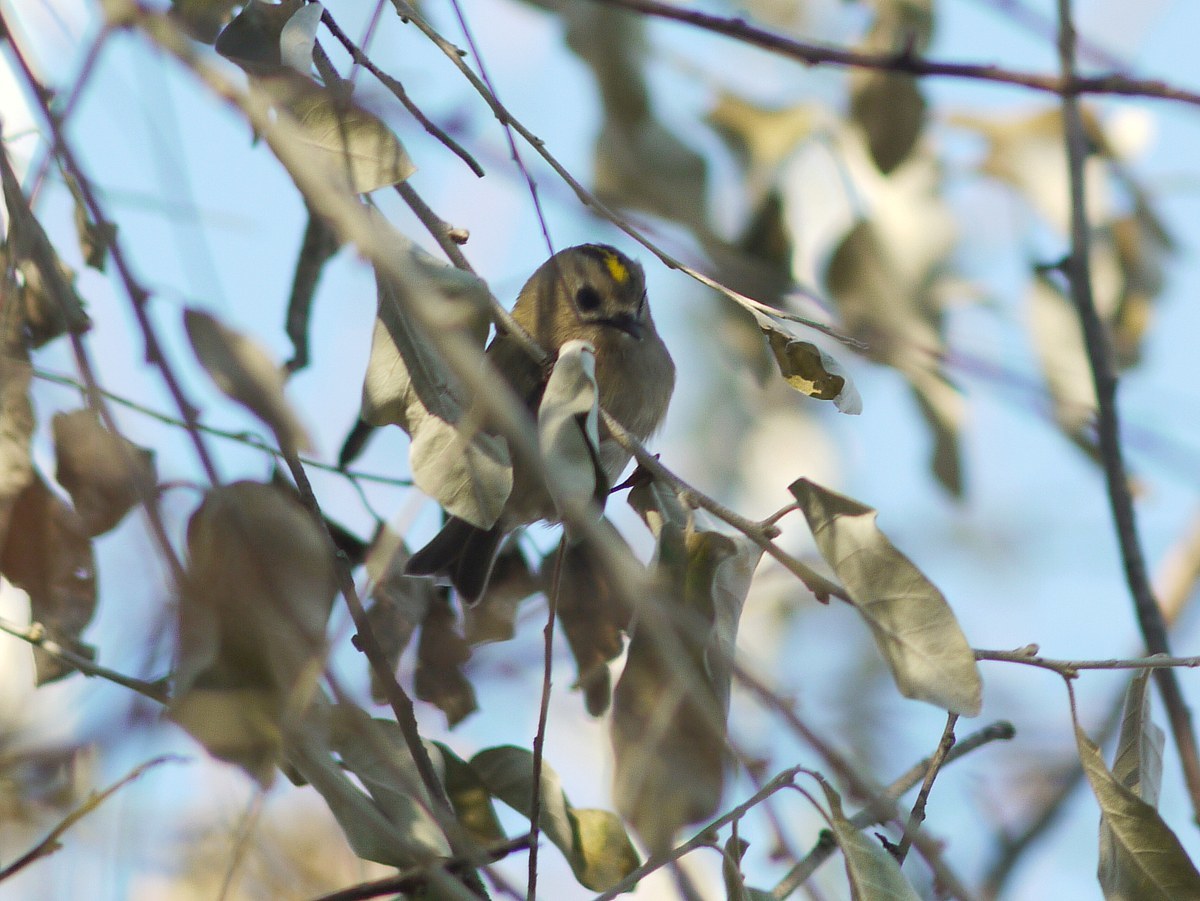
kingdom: Animalia
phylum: Chordata
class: Aves
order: Passeriformes
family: Regulidae
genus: Regulus
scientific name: Regulus regulus
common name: Goldcrest
